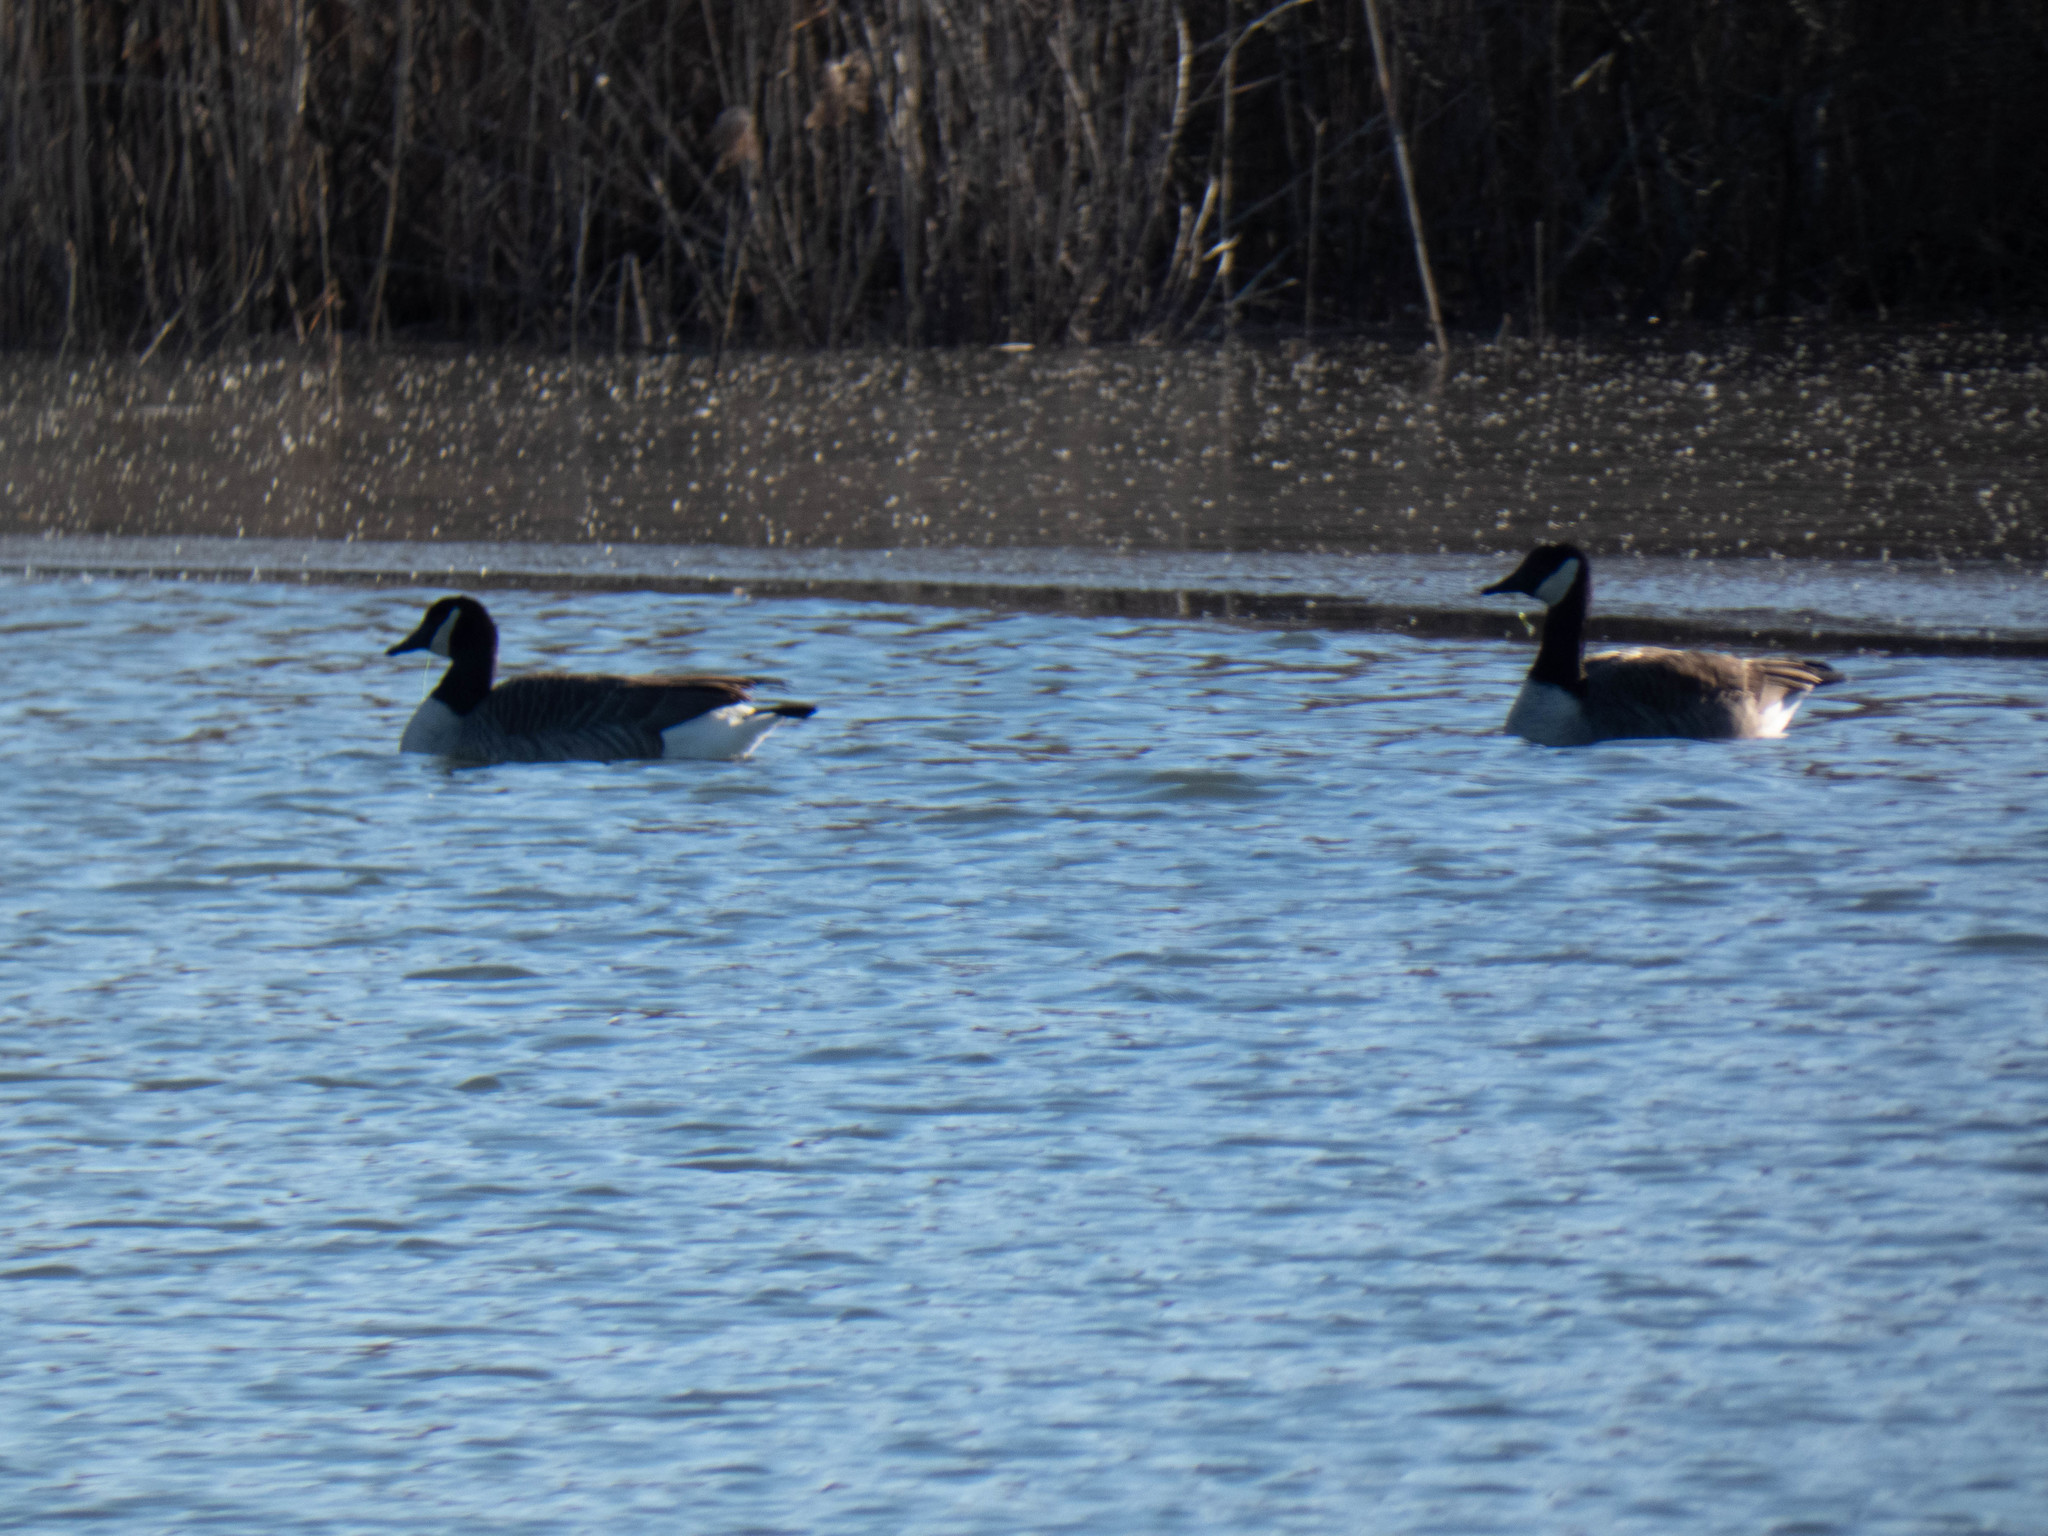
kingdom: Animalia
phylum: Chordata
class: Aves
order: Anseriformes
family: Anatidae
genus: Branta
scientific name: Branta canadensis
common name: Canada goose
